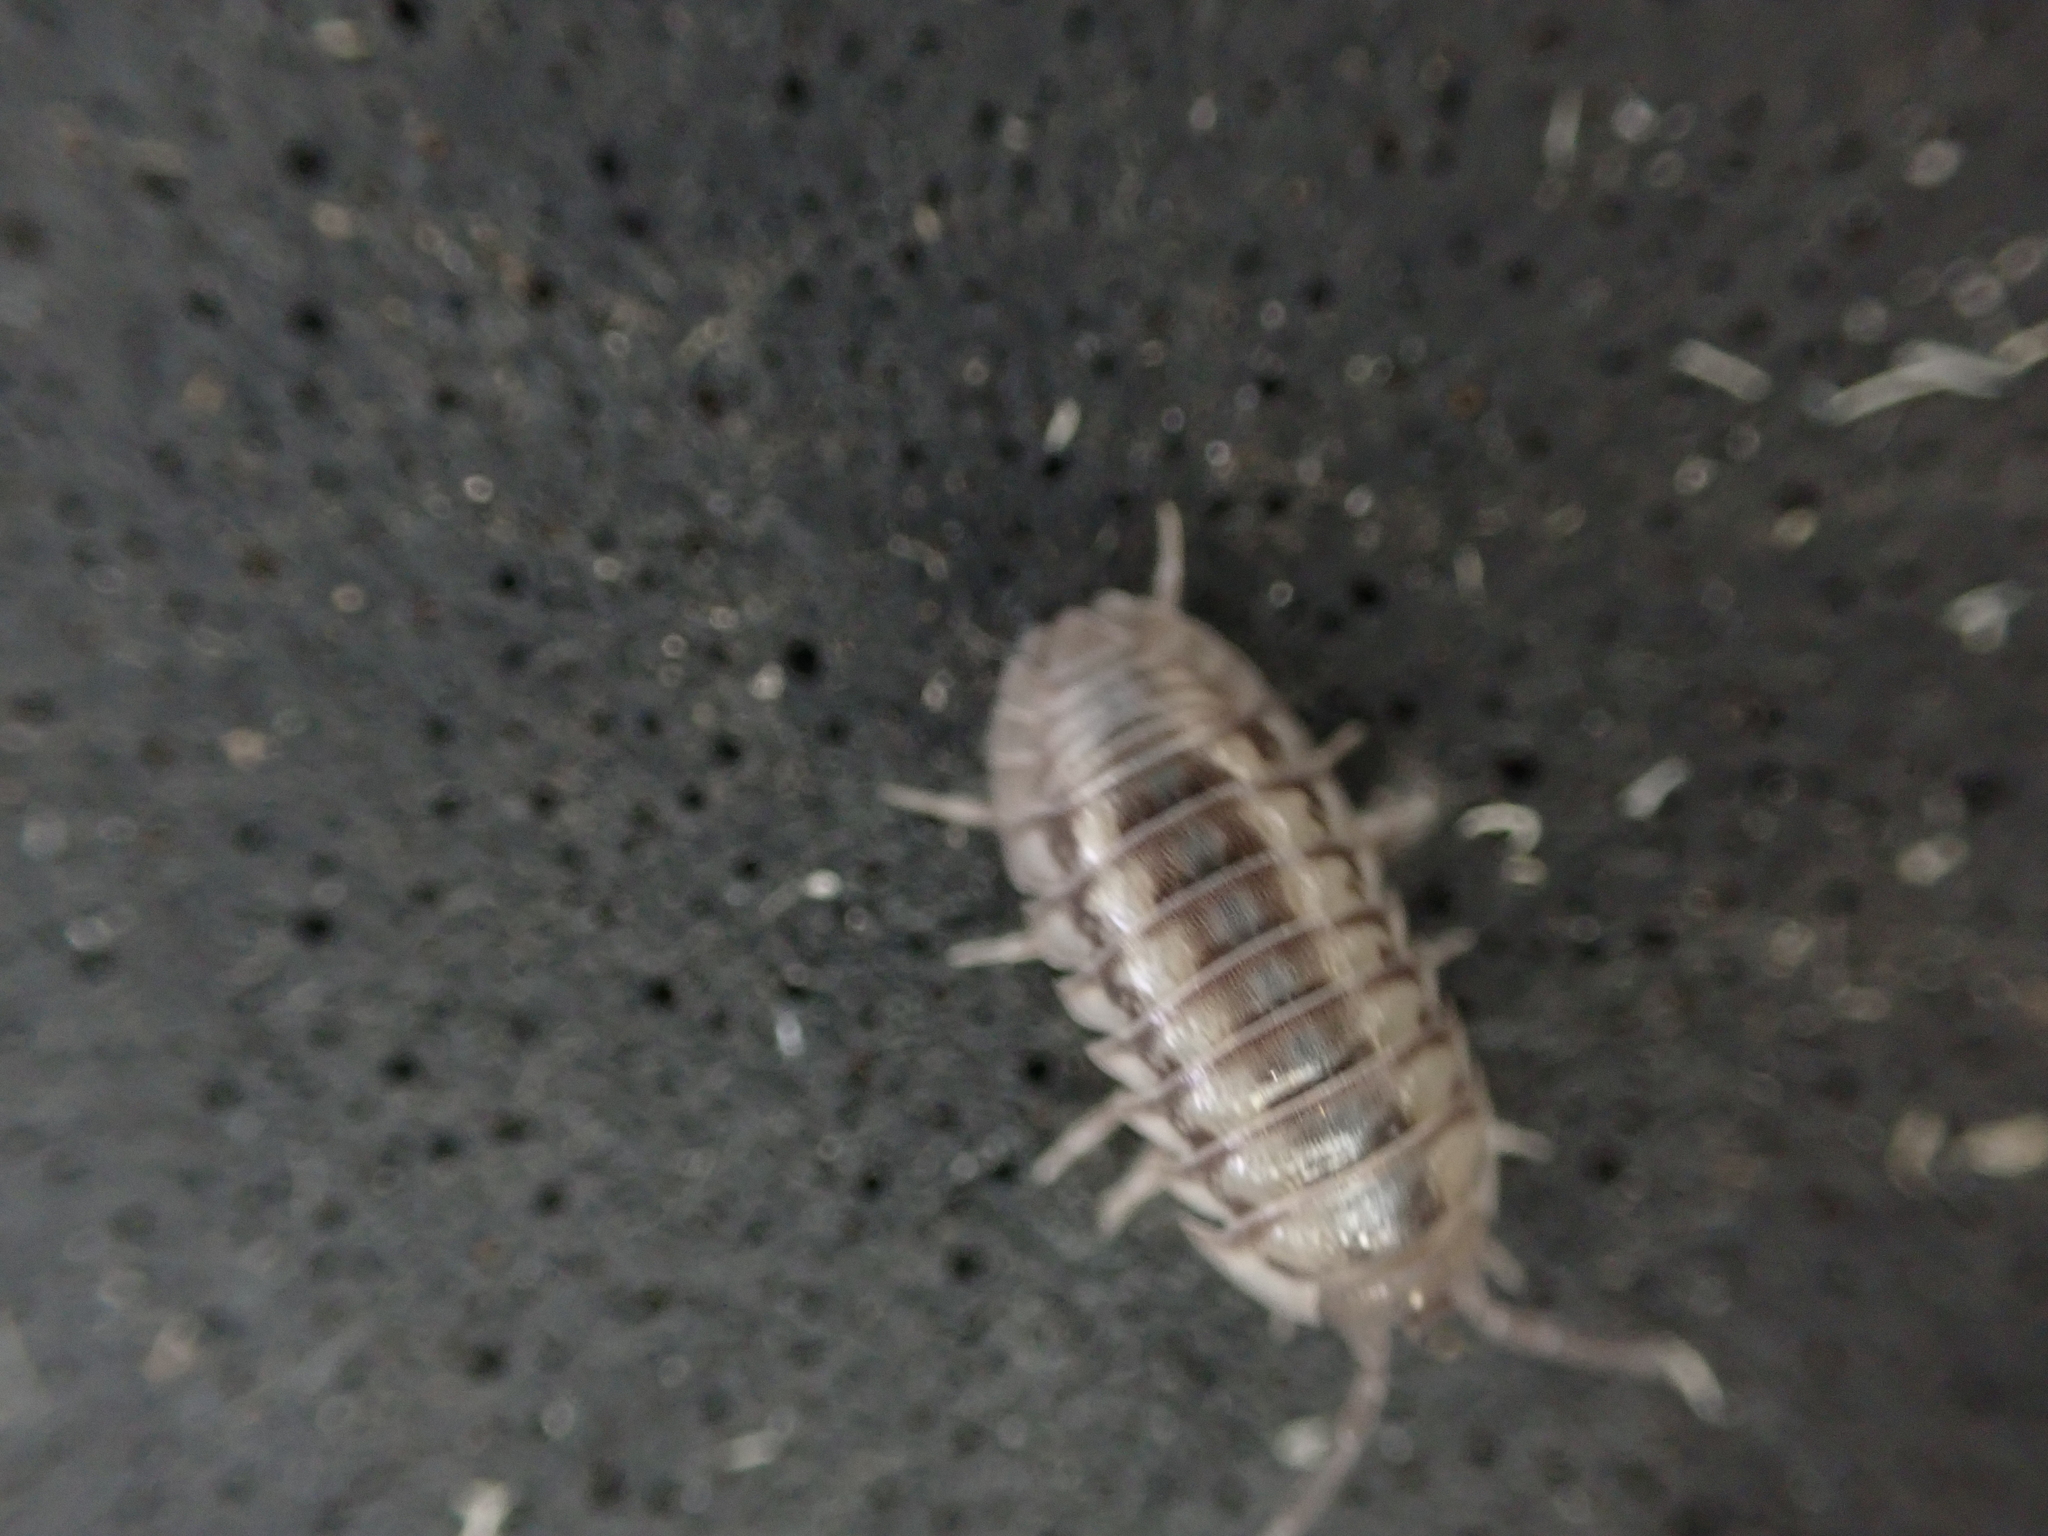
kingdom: Animalia
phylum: Arthropoda
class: Malacostraca
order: Isopoda
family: Armadillidiidae
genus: Armadillidium
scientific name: Armadillidium nasatum
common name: Isopod
